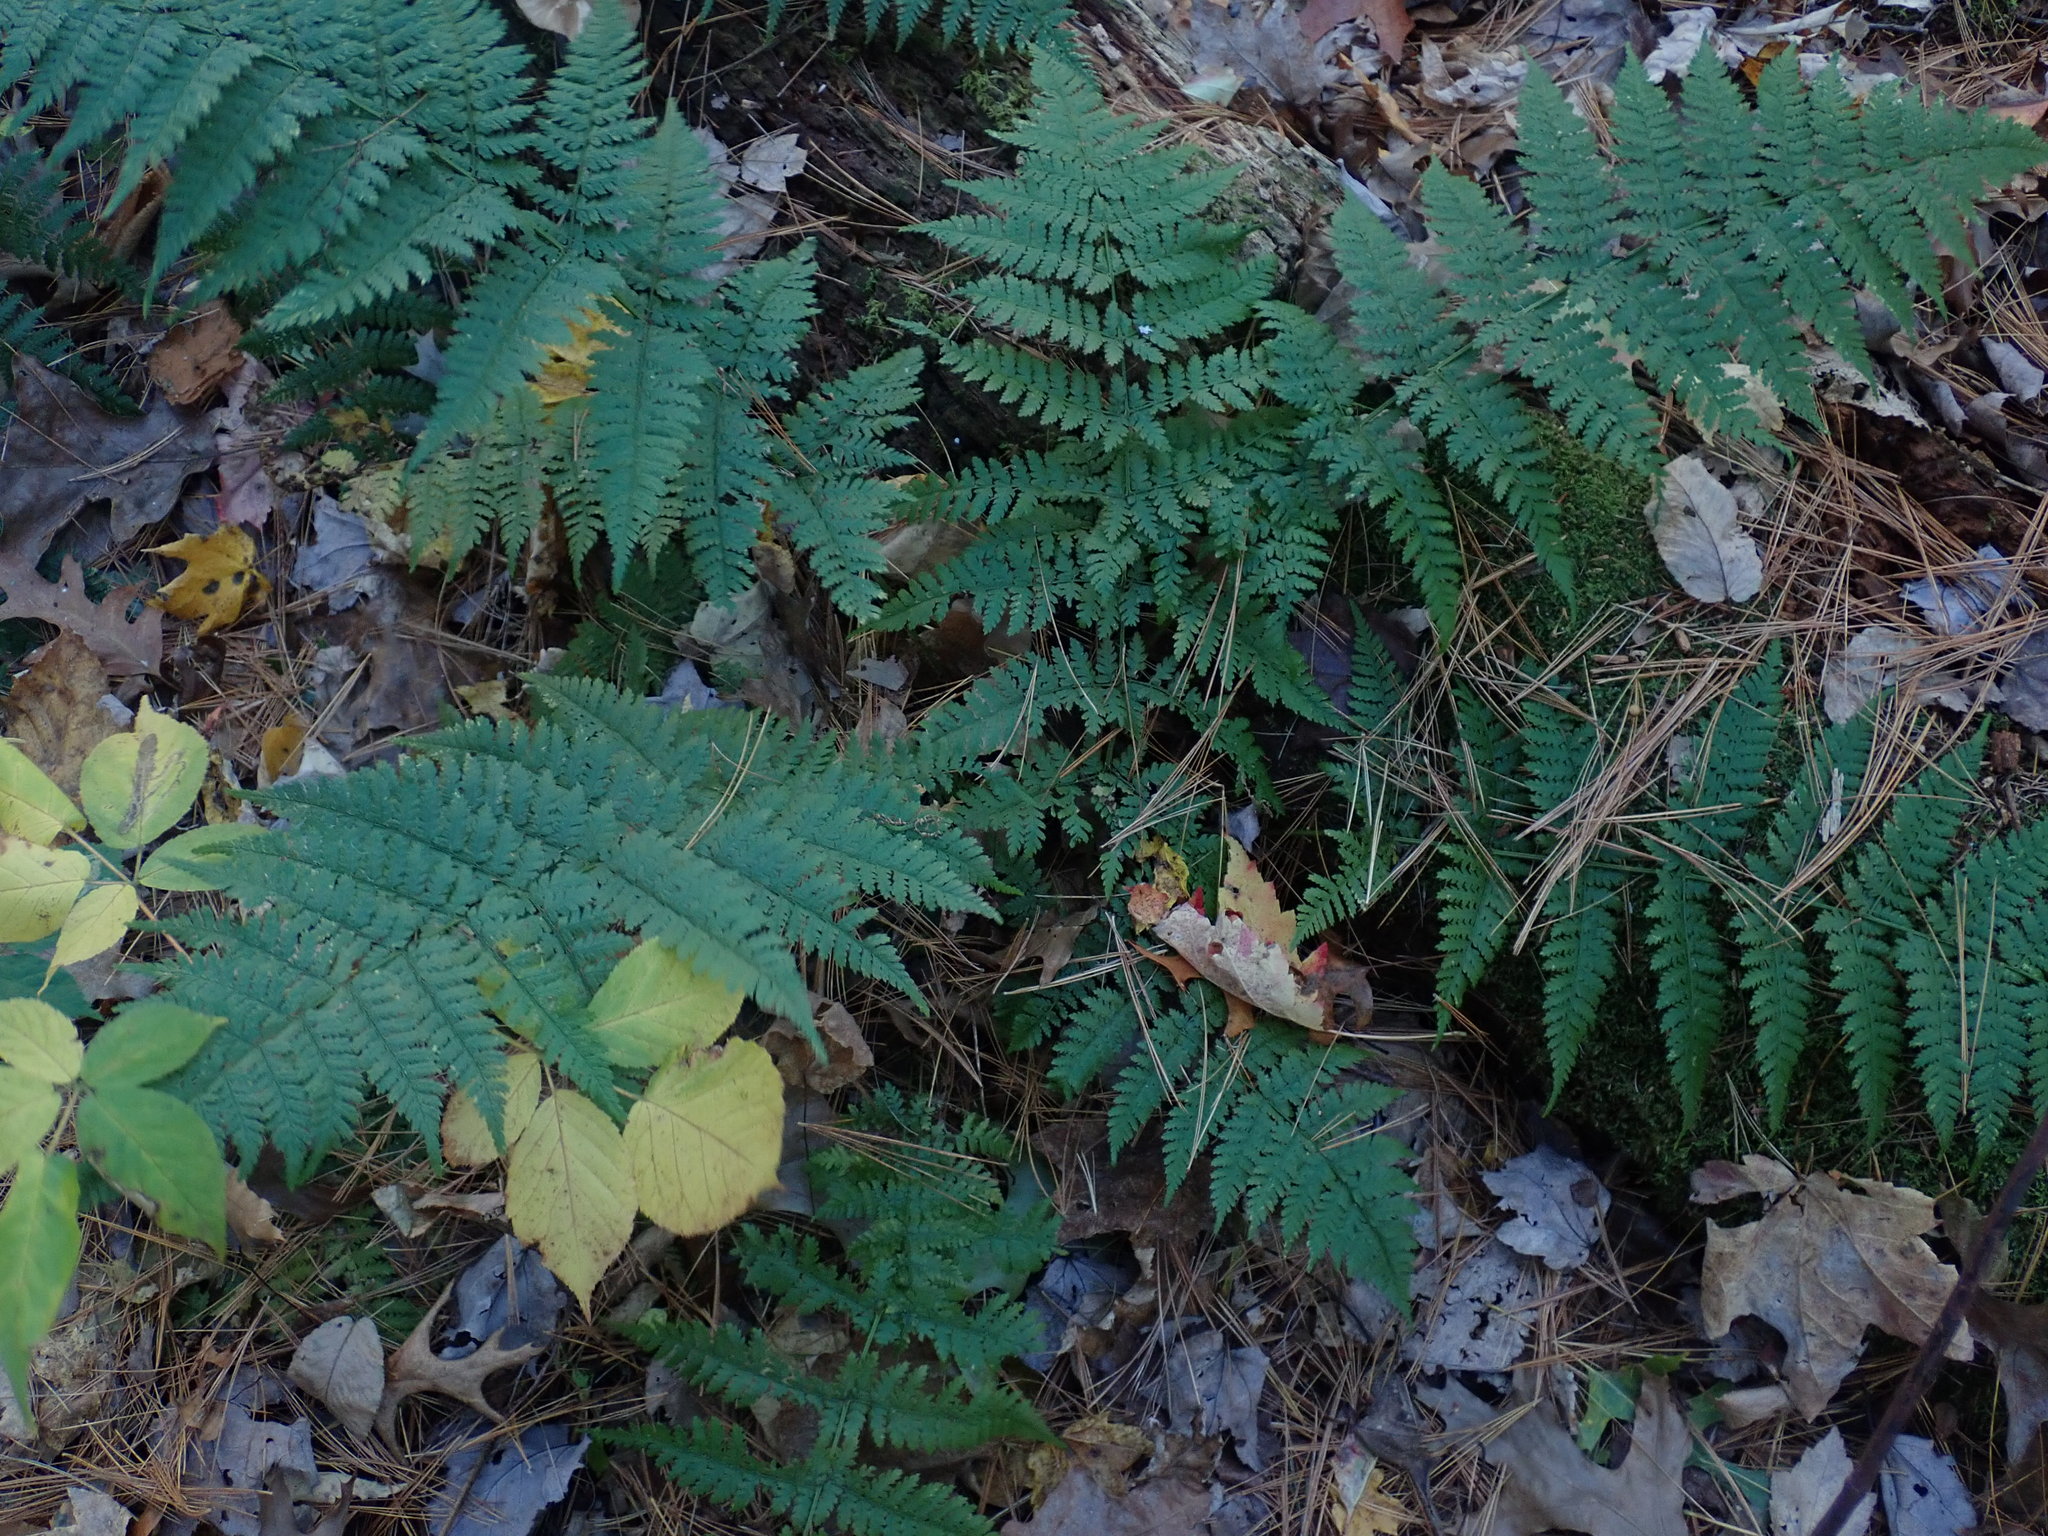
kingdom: Plantae
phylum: Tracheophyta
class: Polypodiopsida
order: Polypodiales
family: Dryopteridaceae
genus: Dryopteris
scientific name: Dryopteris intermedia
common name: Evergreen wood fern
